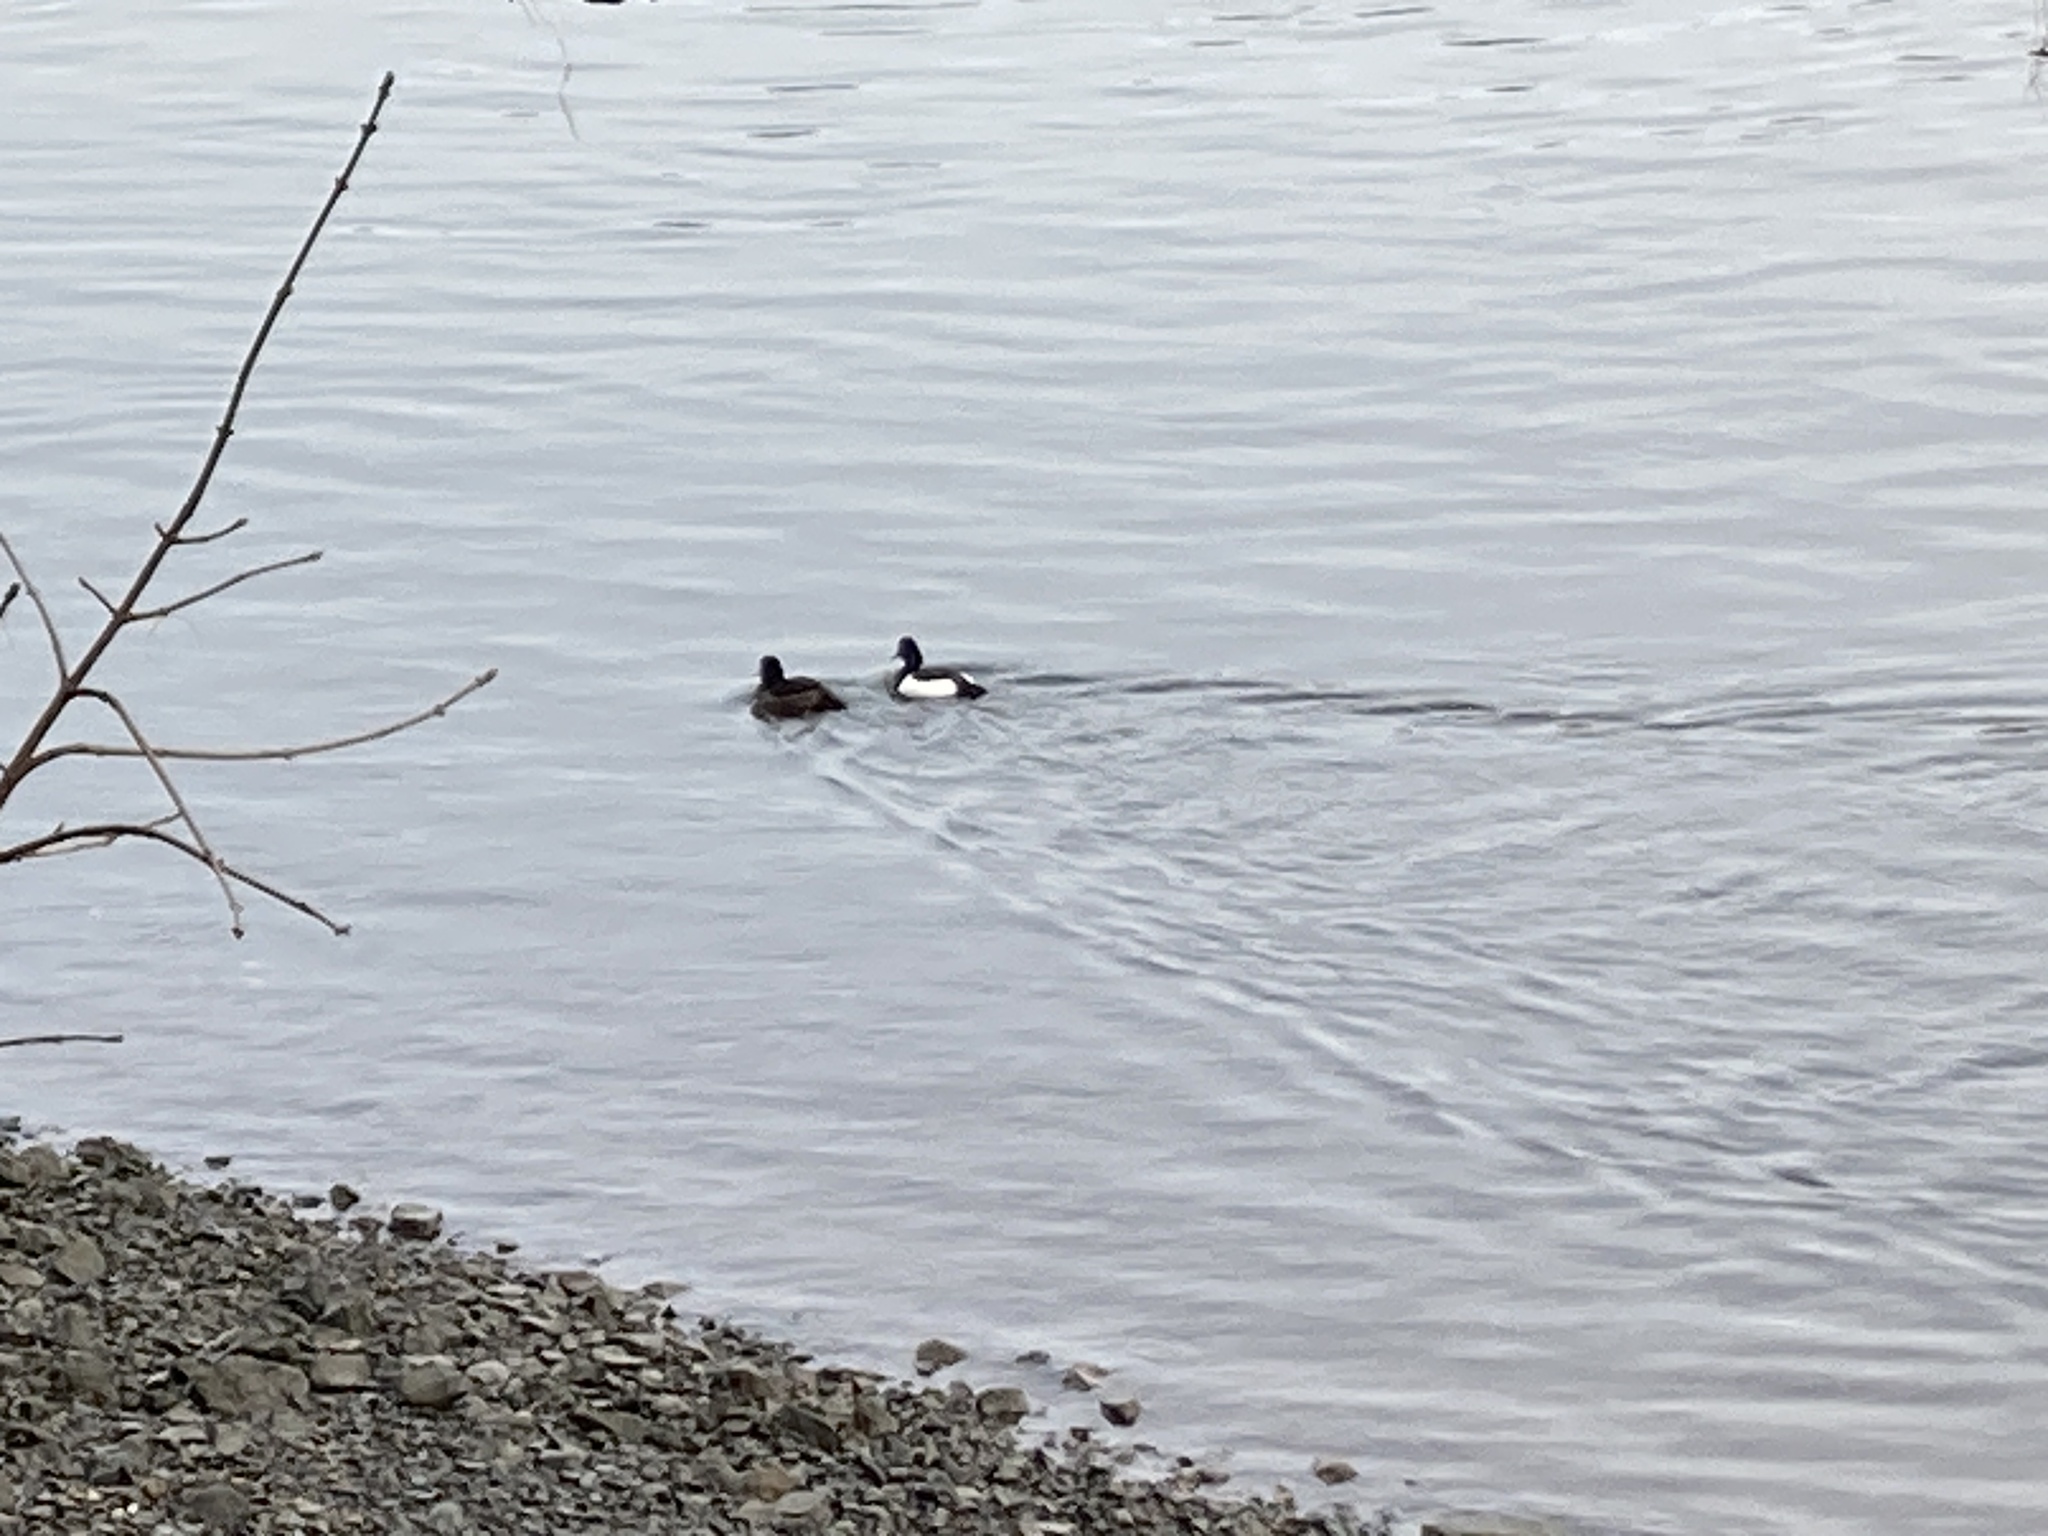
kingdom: Animalia
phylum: Chordata
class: Aves
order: Anseriformes
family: Anatidae
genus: Aythya
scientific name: Aythya fuligula
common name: Tufted duck
